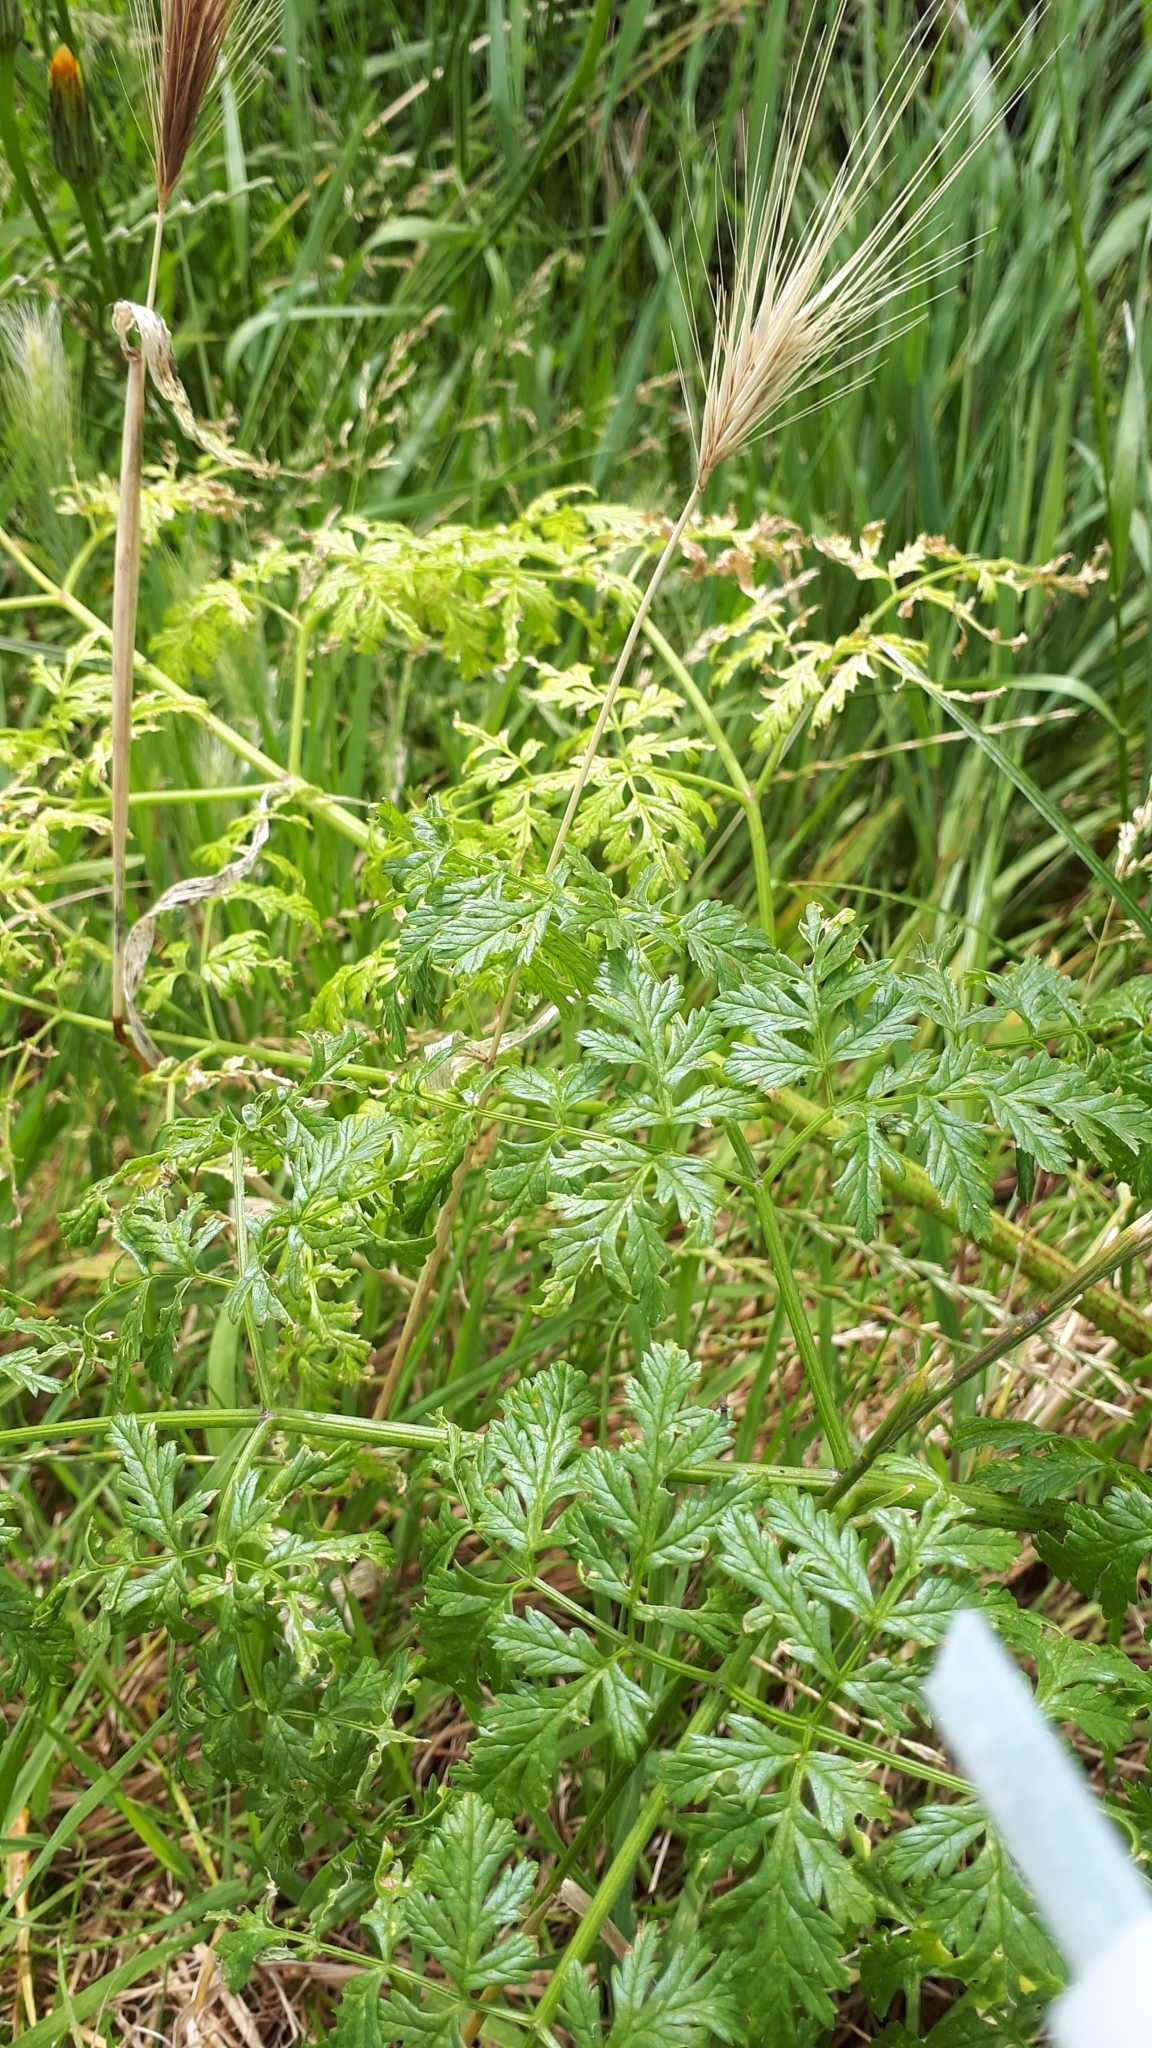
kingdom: Plantae
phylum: Tracheophyta
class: Magnoliopsida
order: Apiales
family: Apiaceae
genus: Conium
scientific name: Conium maculatum
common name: Hemlock
